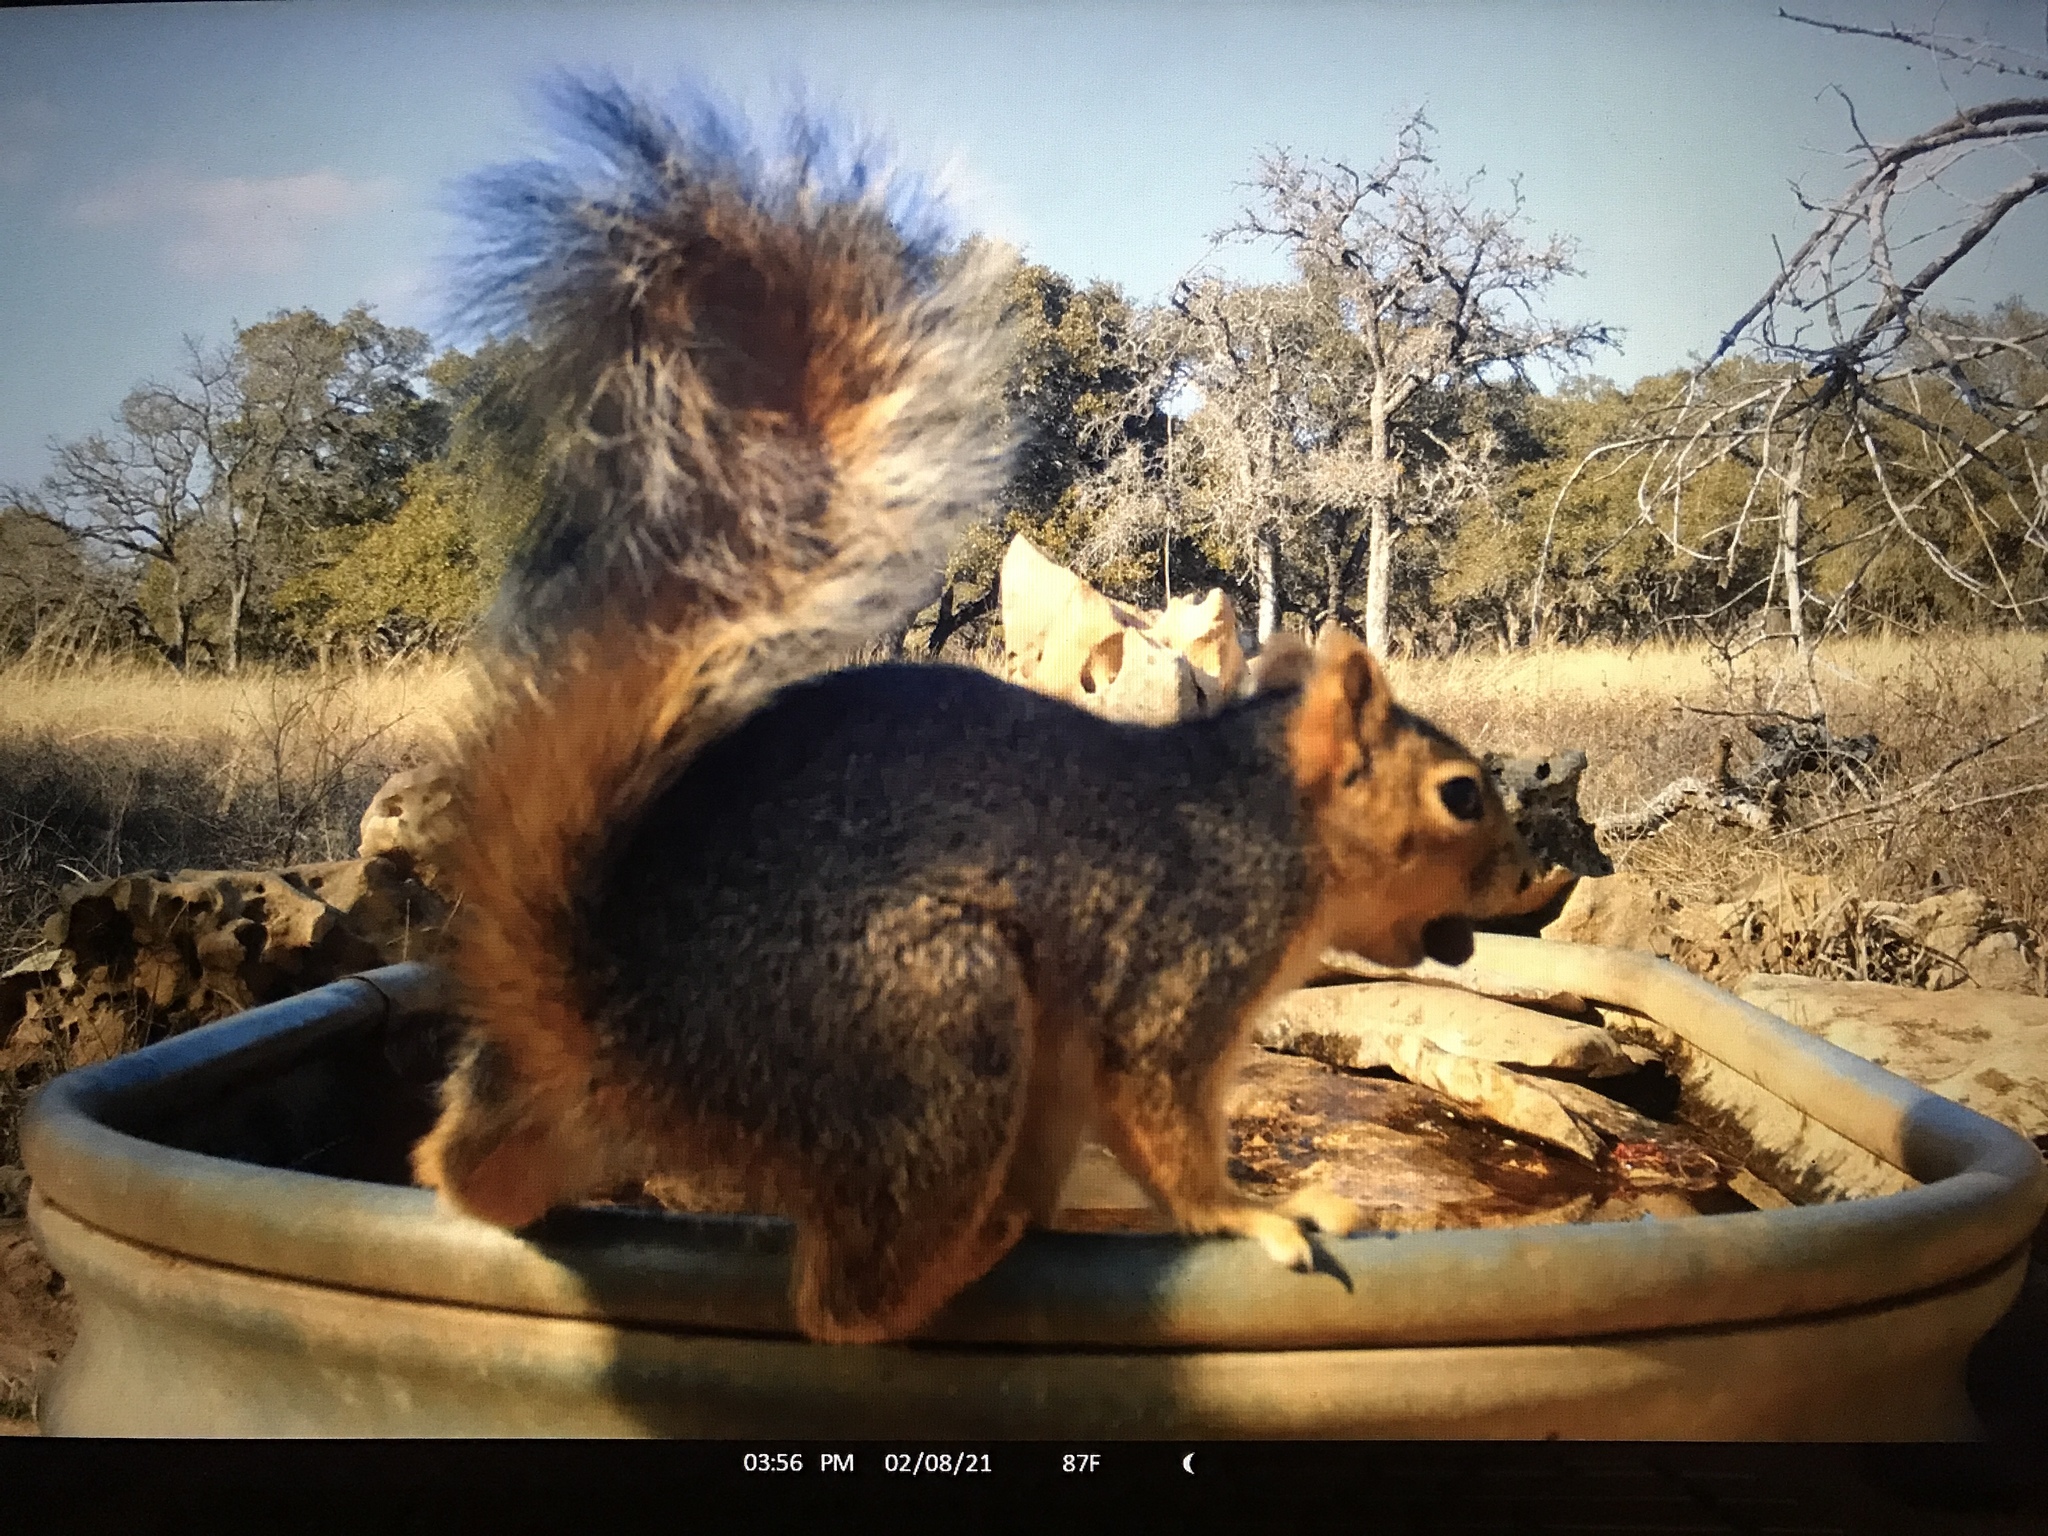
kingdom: Animalia
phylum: Chordata
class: Mammalia
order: Rodentia
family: Sciuridae
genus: Sciurus
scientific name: Sciurus niger
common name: Fox squirrel
